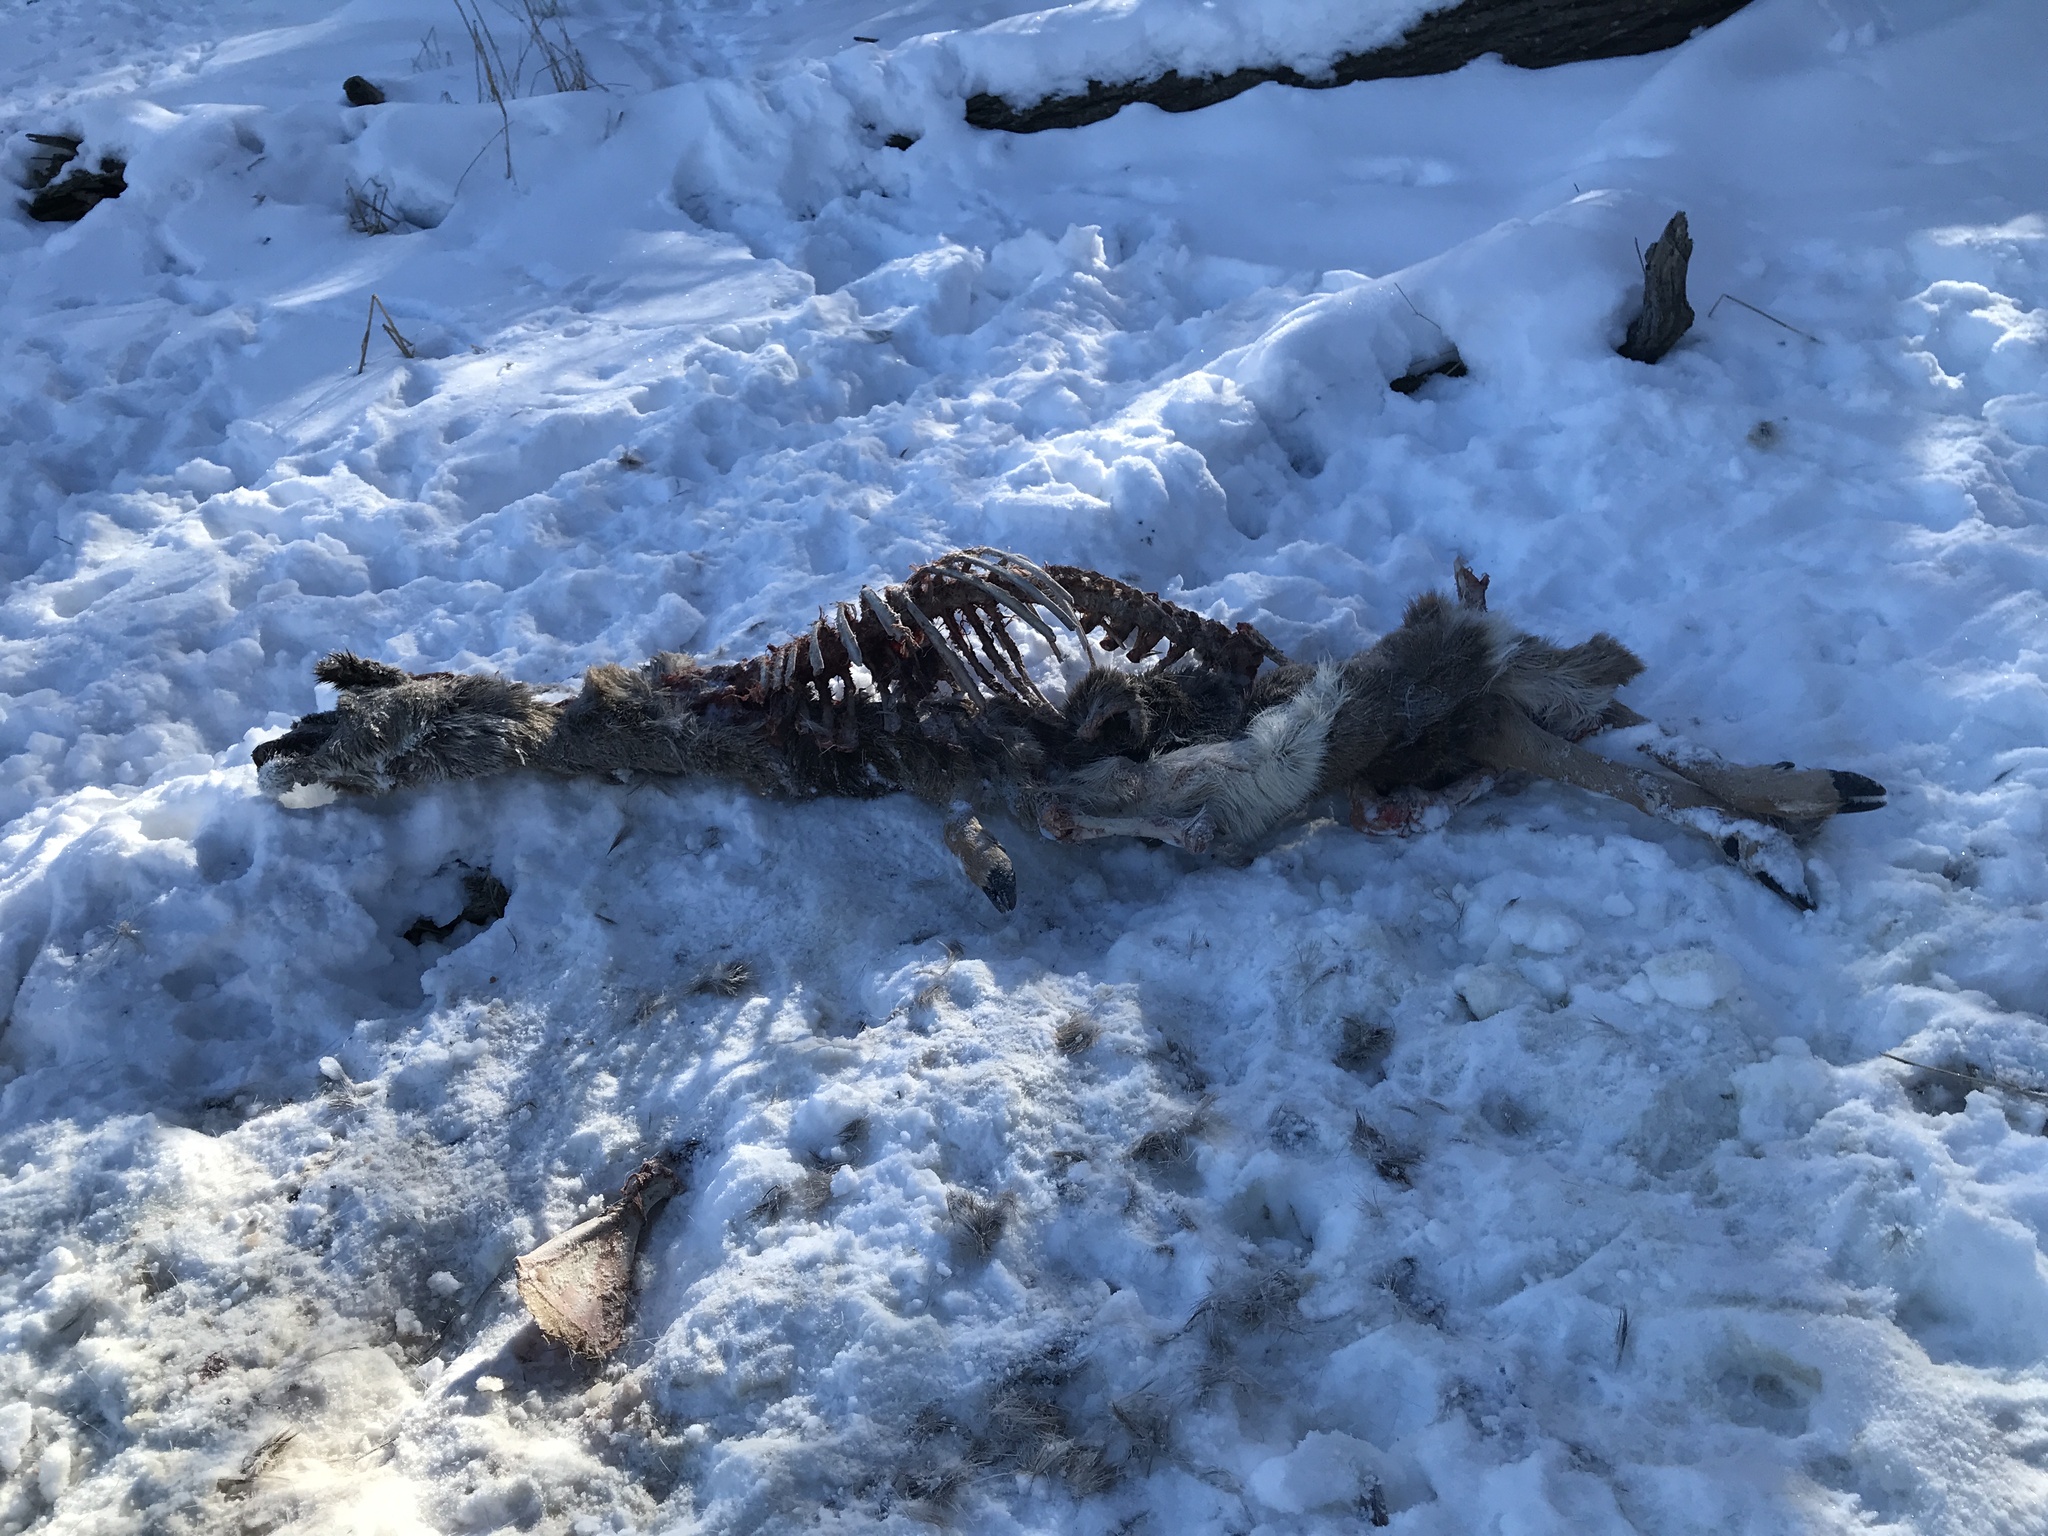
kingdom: Animalia
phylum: Chordata
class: Mammalia
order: Artiodactyla
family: Cervidae
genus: Odocoileus
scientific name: Odocoileus virginianus
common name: White-tailed deer
